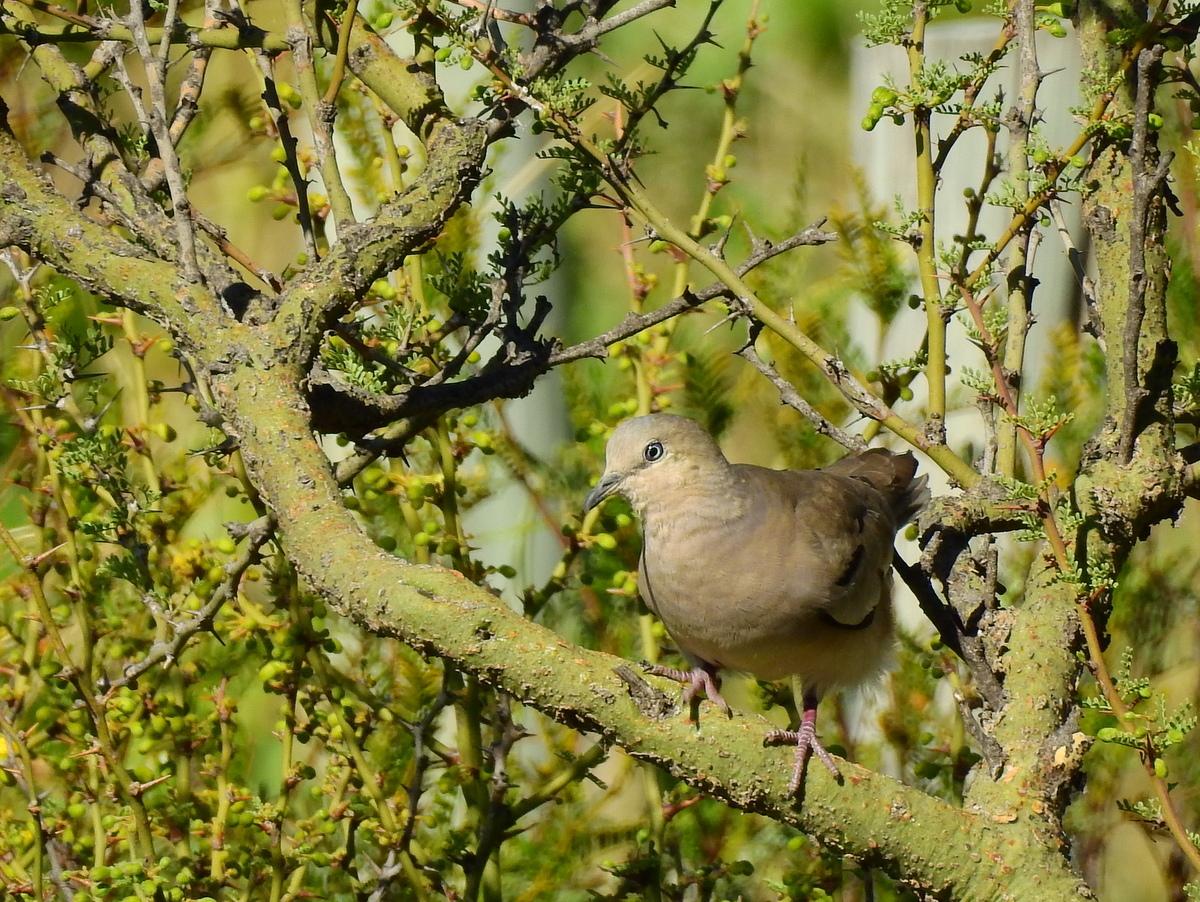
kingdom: Animalia
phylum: Chordata
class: Aves
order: Columbiformes
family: Columbidae
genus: Columbina
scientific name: Columbina picui
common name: Picui ground dove
